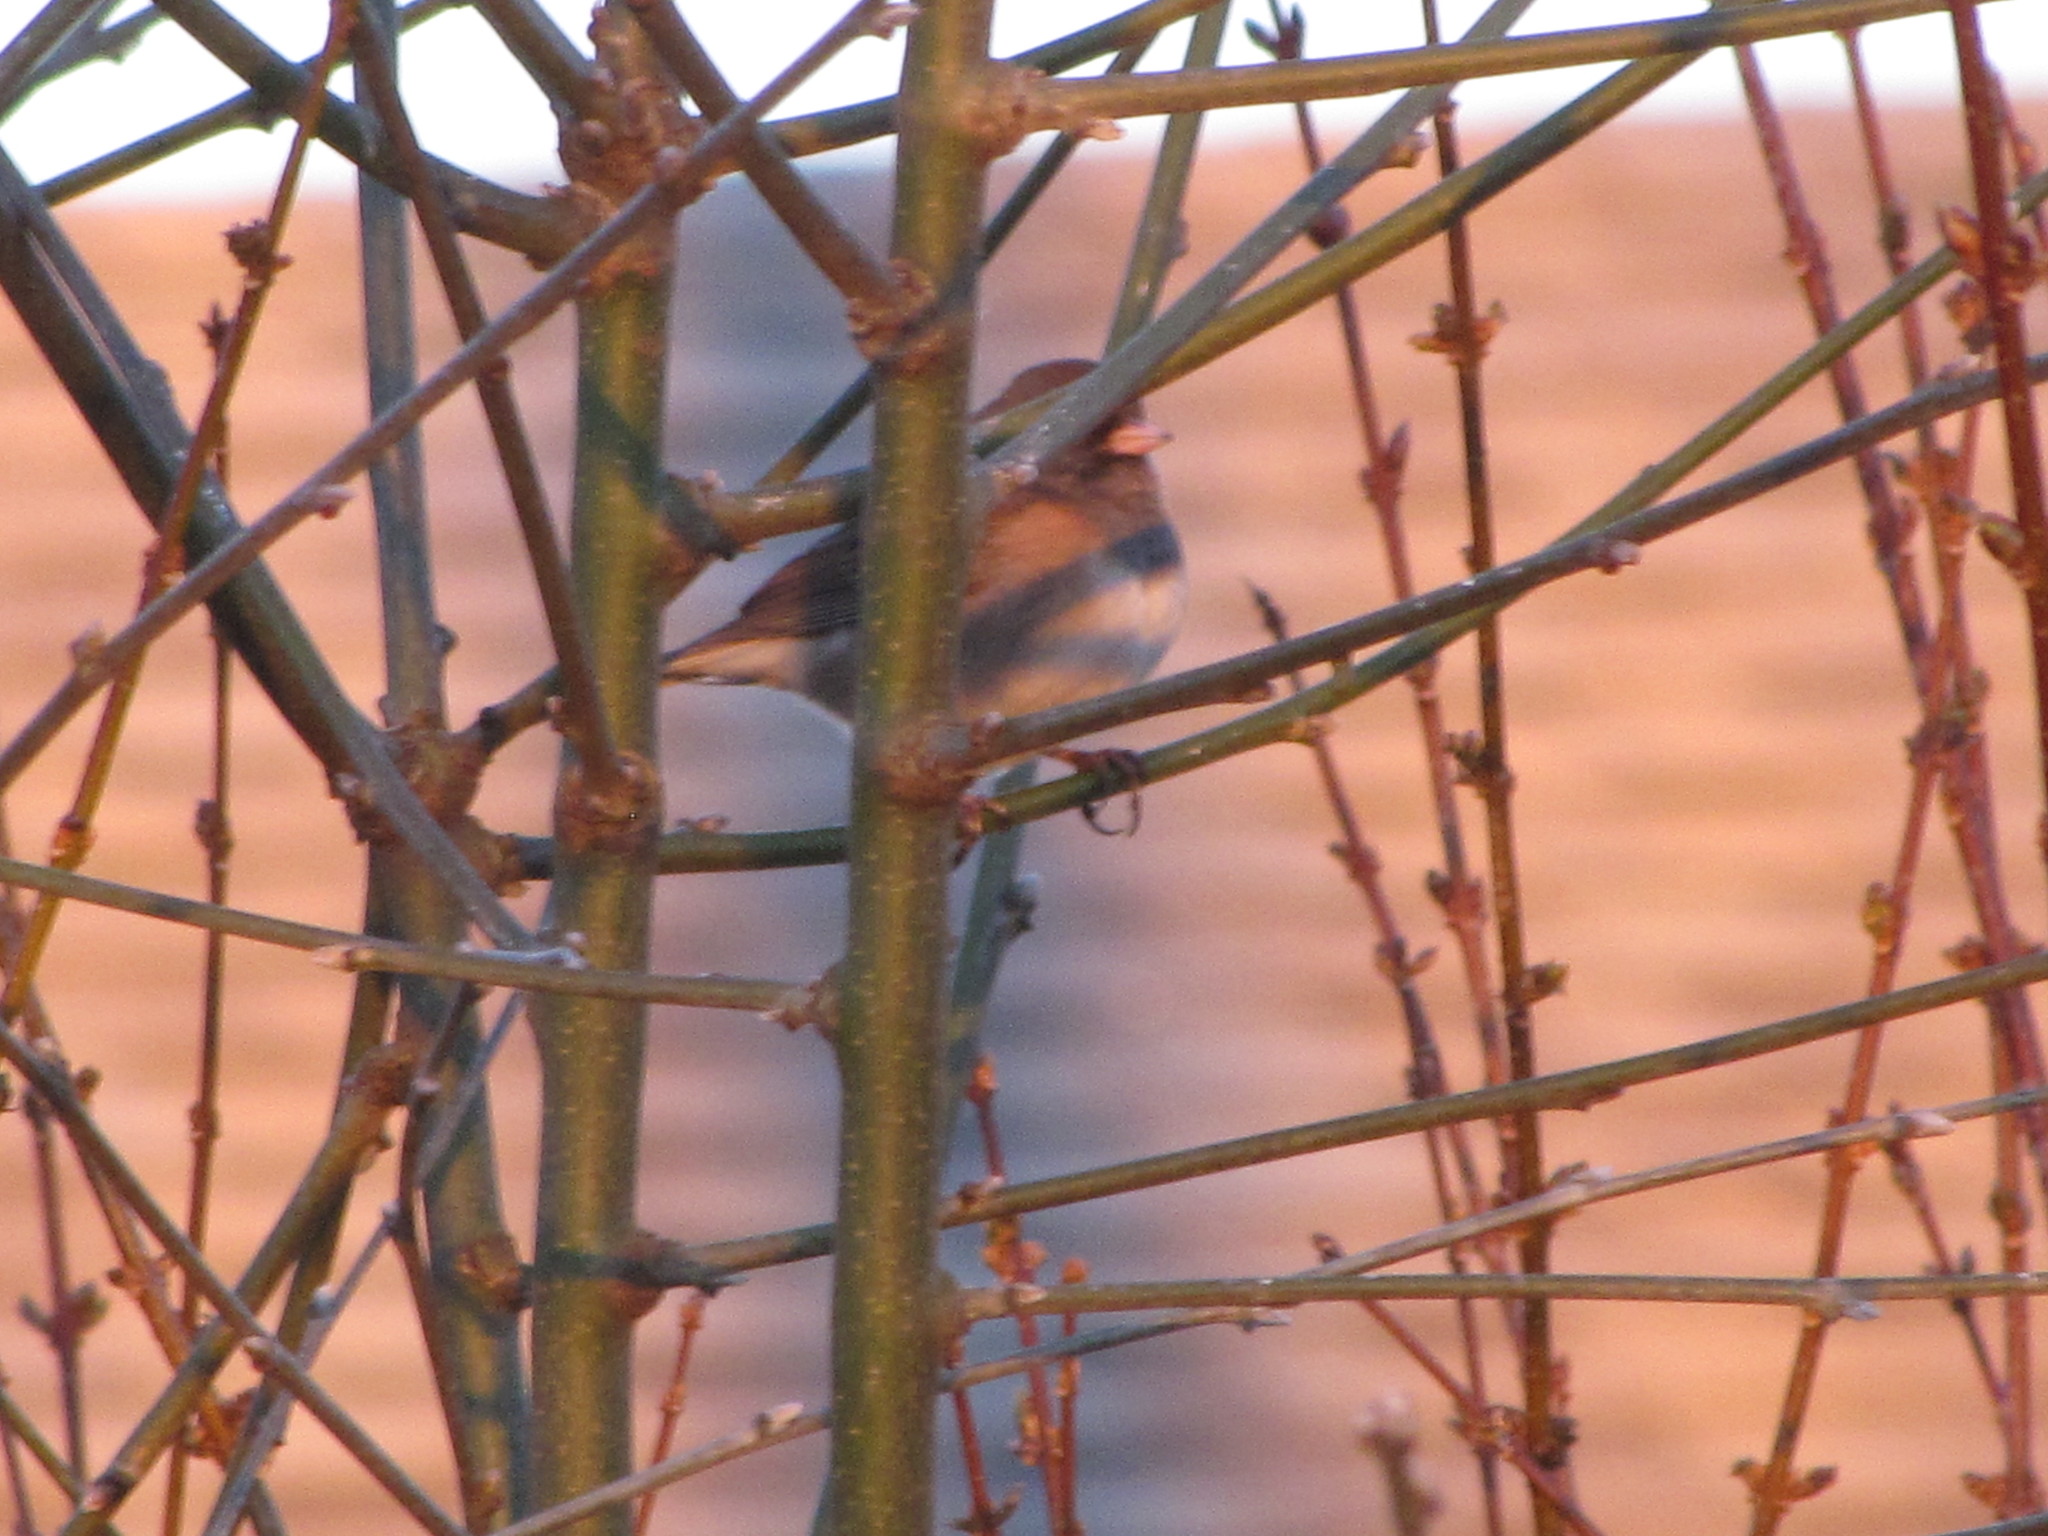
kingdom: Animalia
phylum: Chordata
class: Aves
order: Passeriformes
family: Passerellidae
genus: Junco
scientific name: Junco hyemalis
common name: Dark-eyed junco
